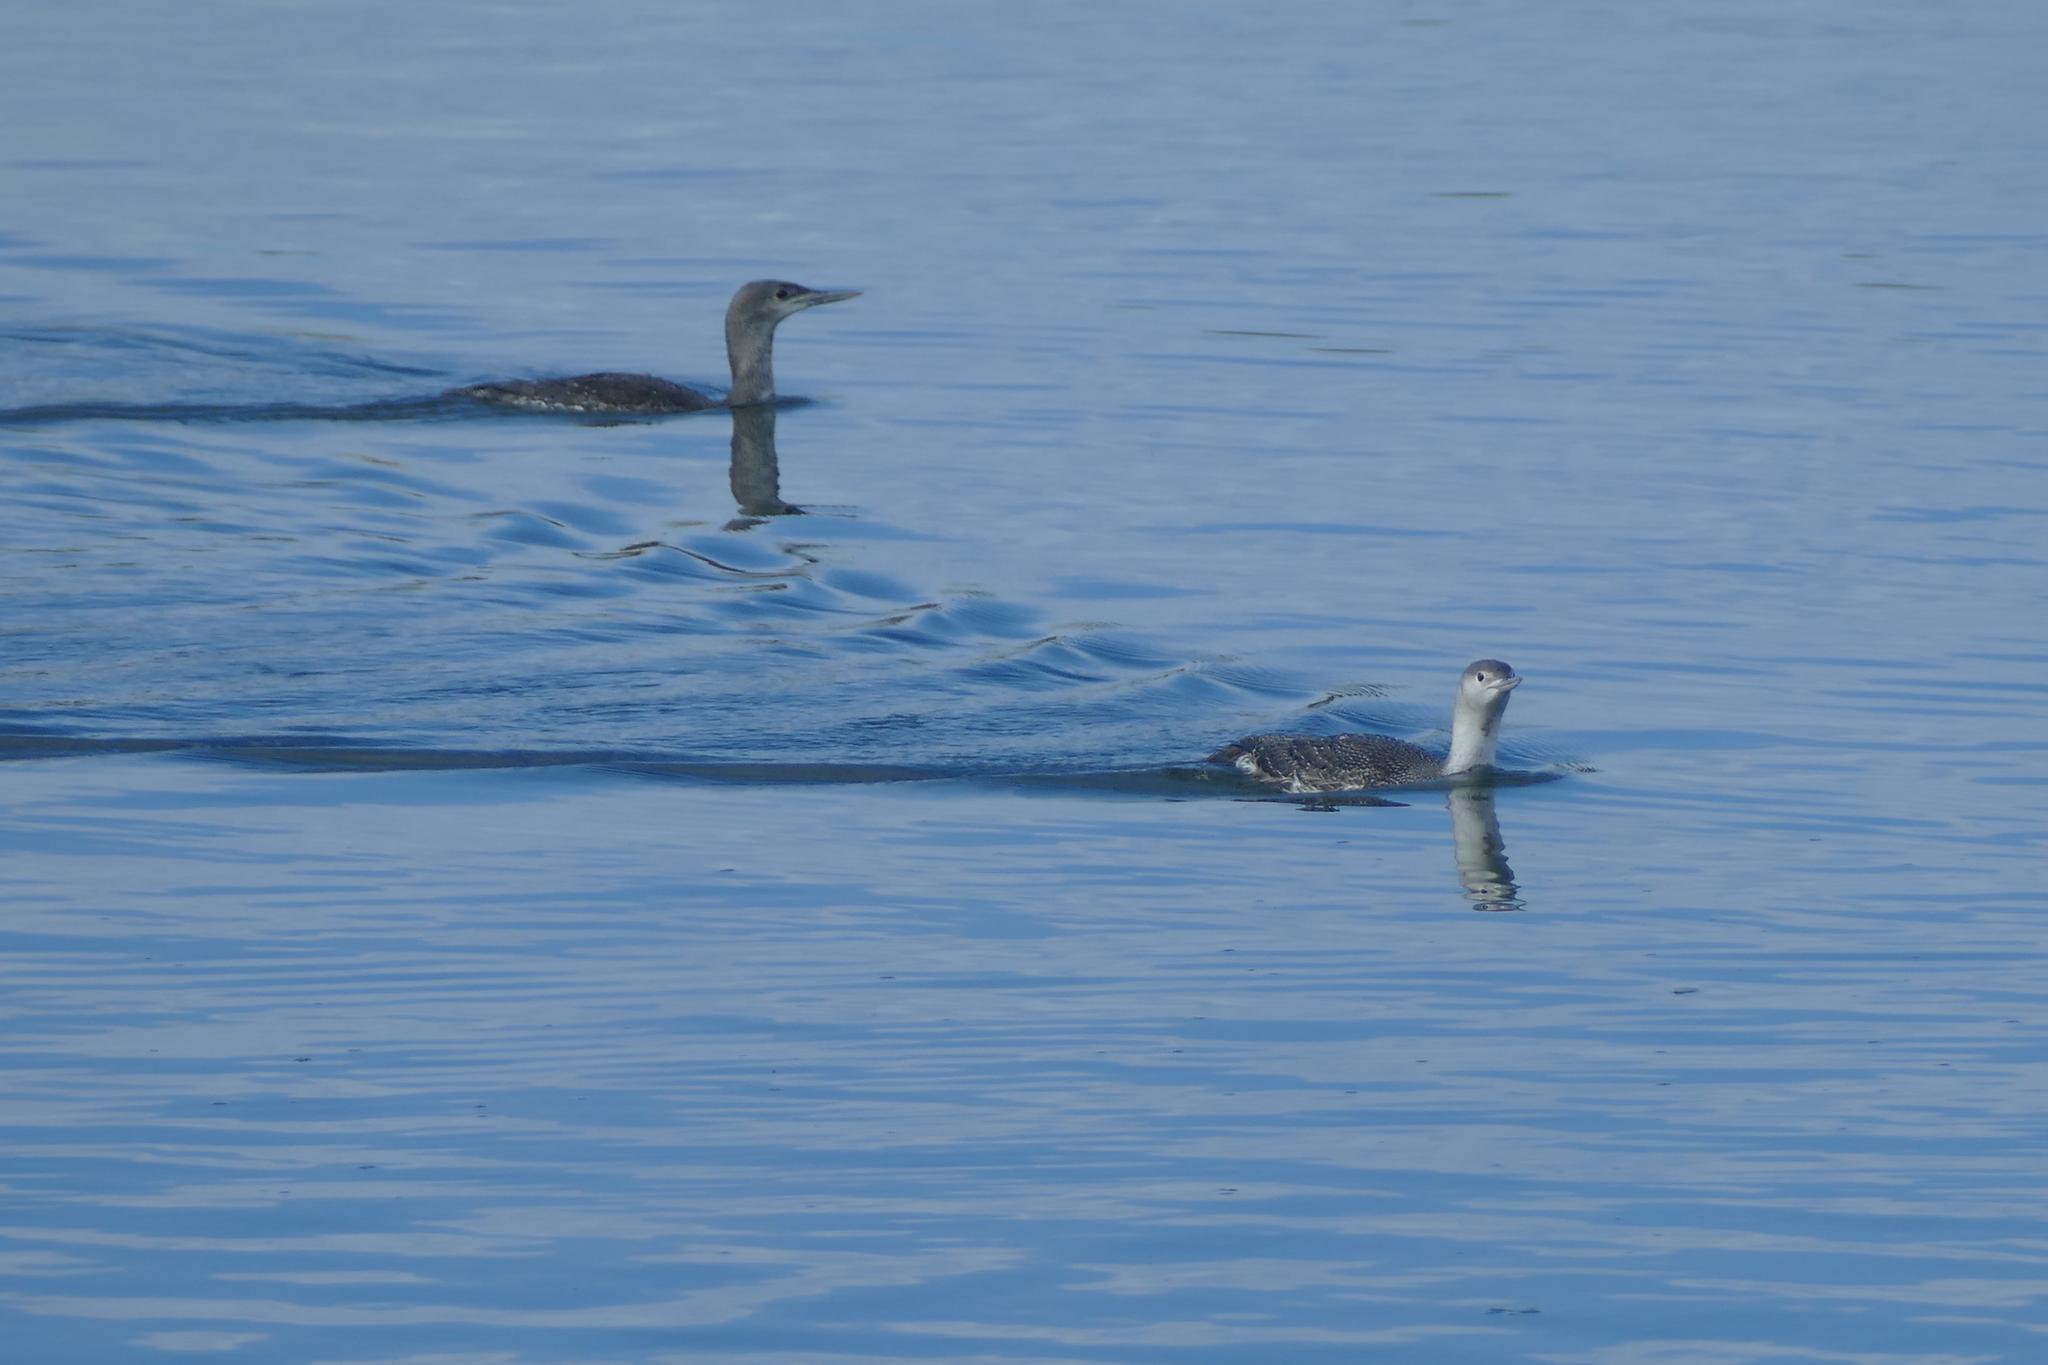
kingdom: Animalia
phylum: Chordata
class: Aves
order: Gaviiformes
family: Gaviidae
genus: Gavia
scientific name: Gavia stellata
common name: Red-throated loon
